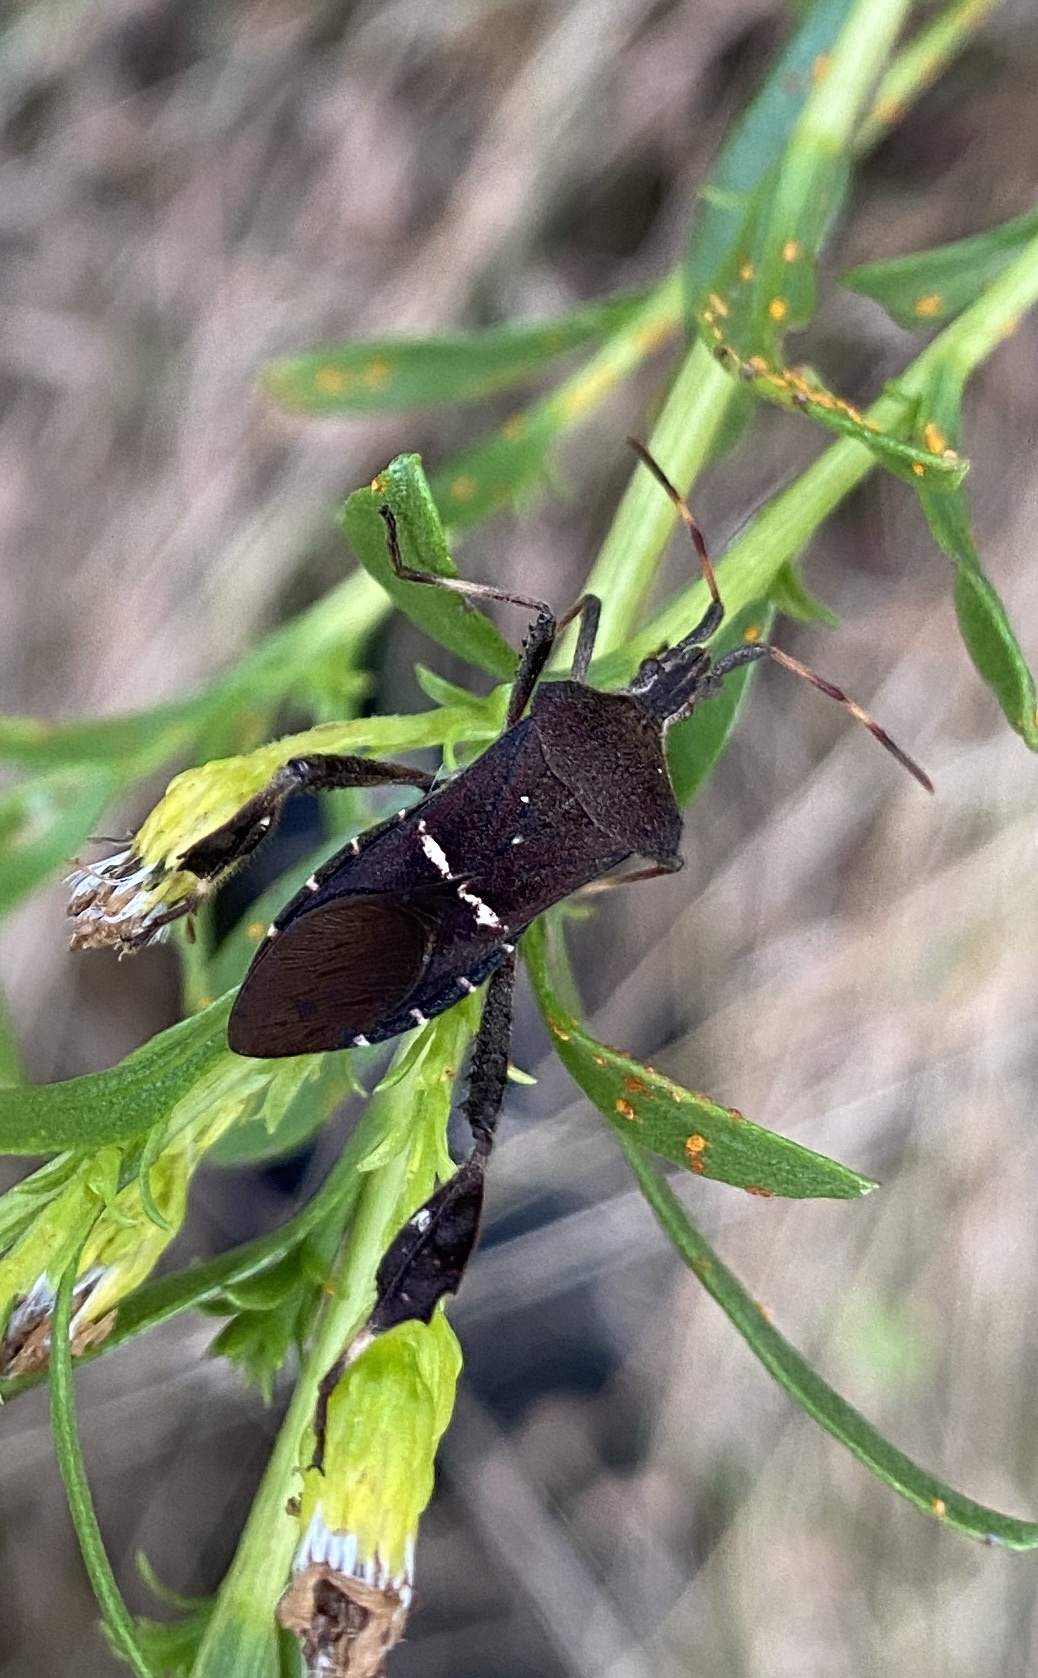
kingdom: Animalia
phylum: Arthropoda
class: Insecta
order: Hemiptera
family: Coreidae
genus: Leptoglossus
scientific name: Leptoglossus phyllopus
